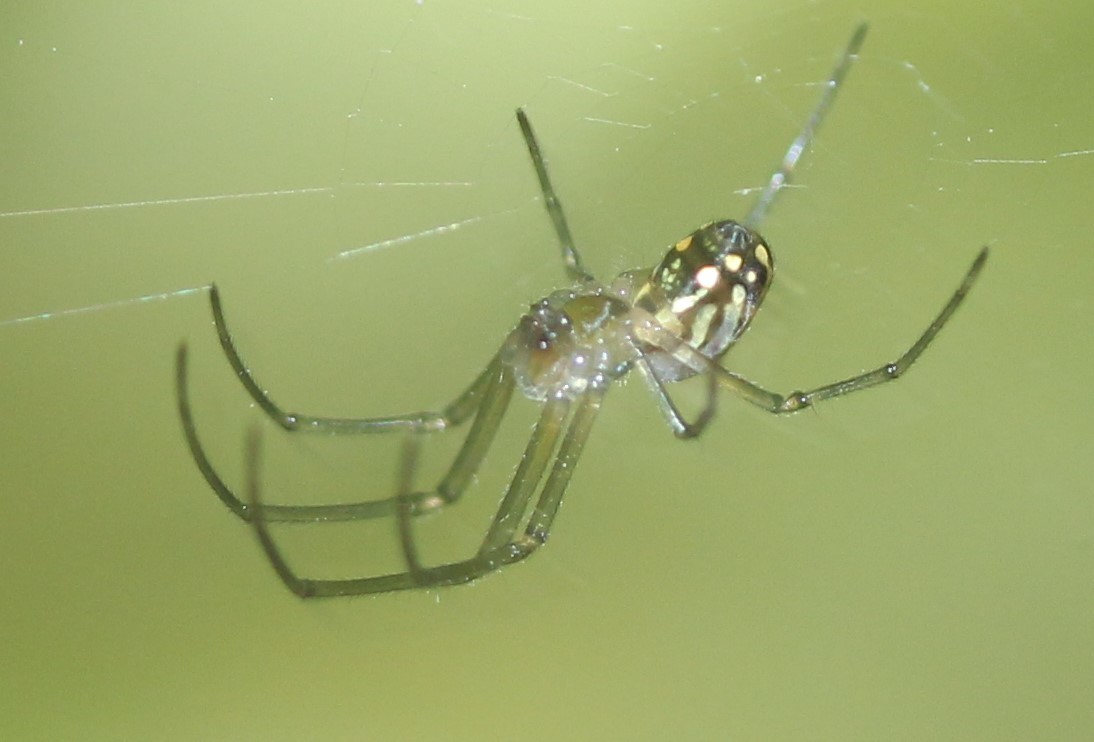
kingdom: Animalia
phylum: Arthropoda
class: Arachnida
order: Araneae
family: Tetragnathidae
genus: Leucauge
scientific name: Leucauge argyra
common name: Longjawed orb weavers
